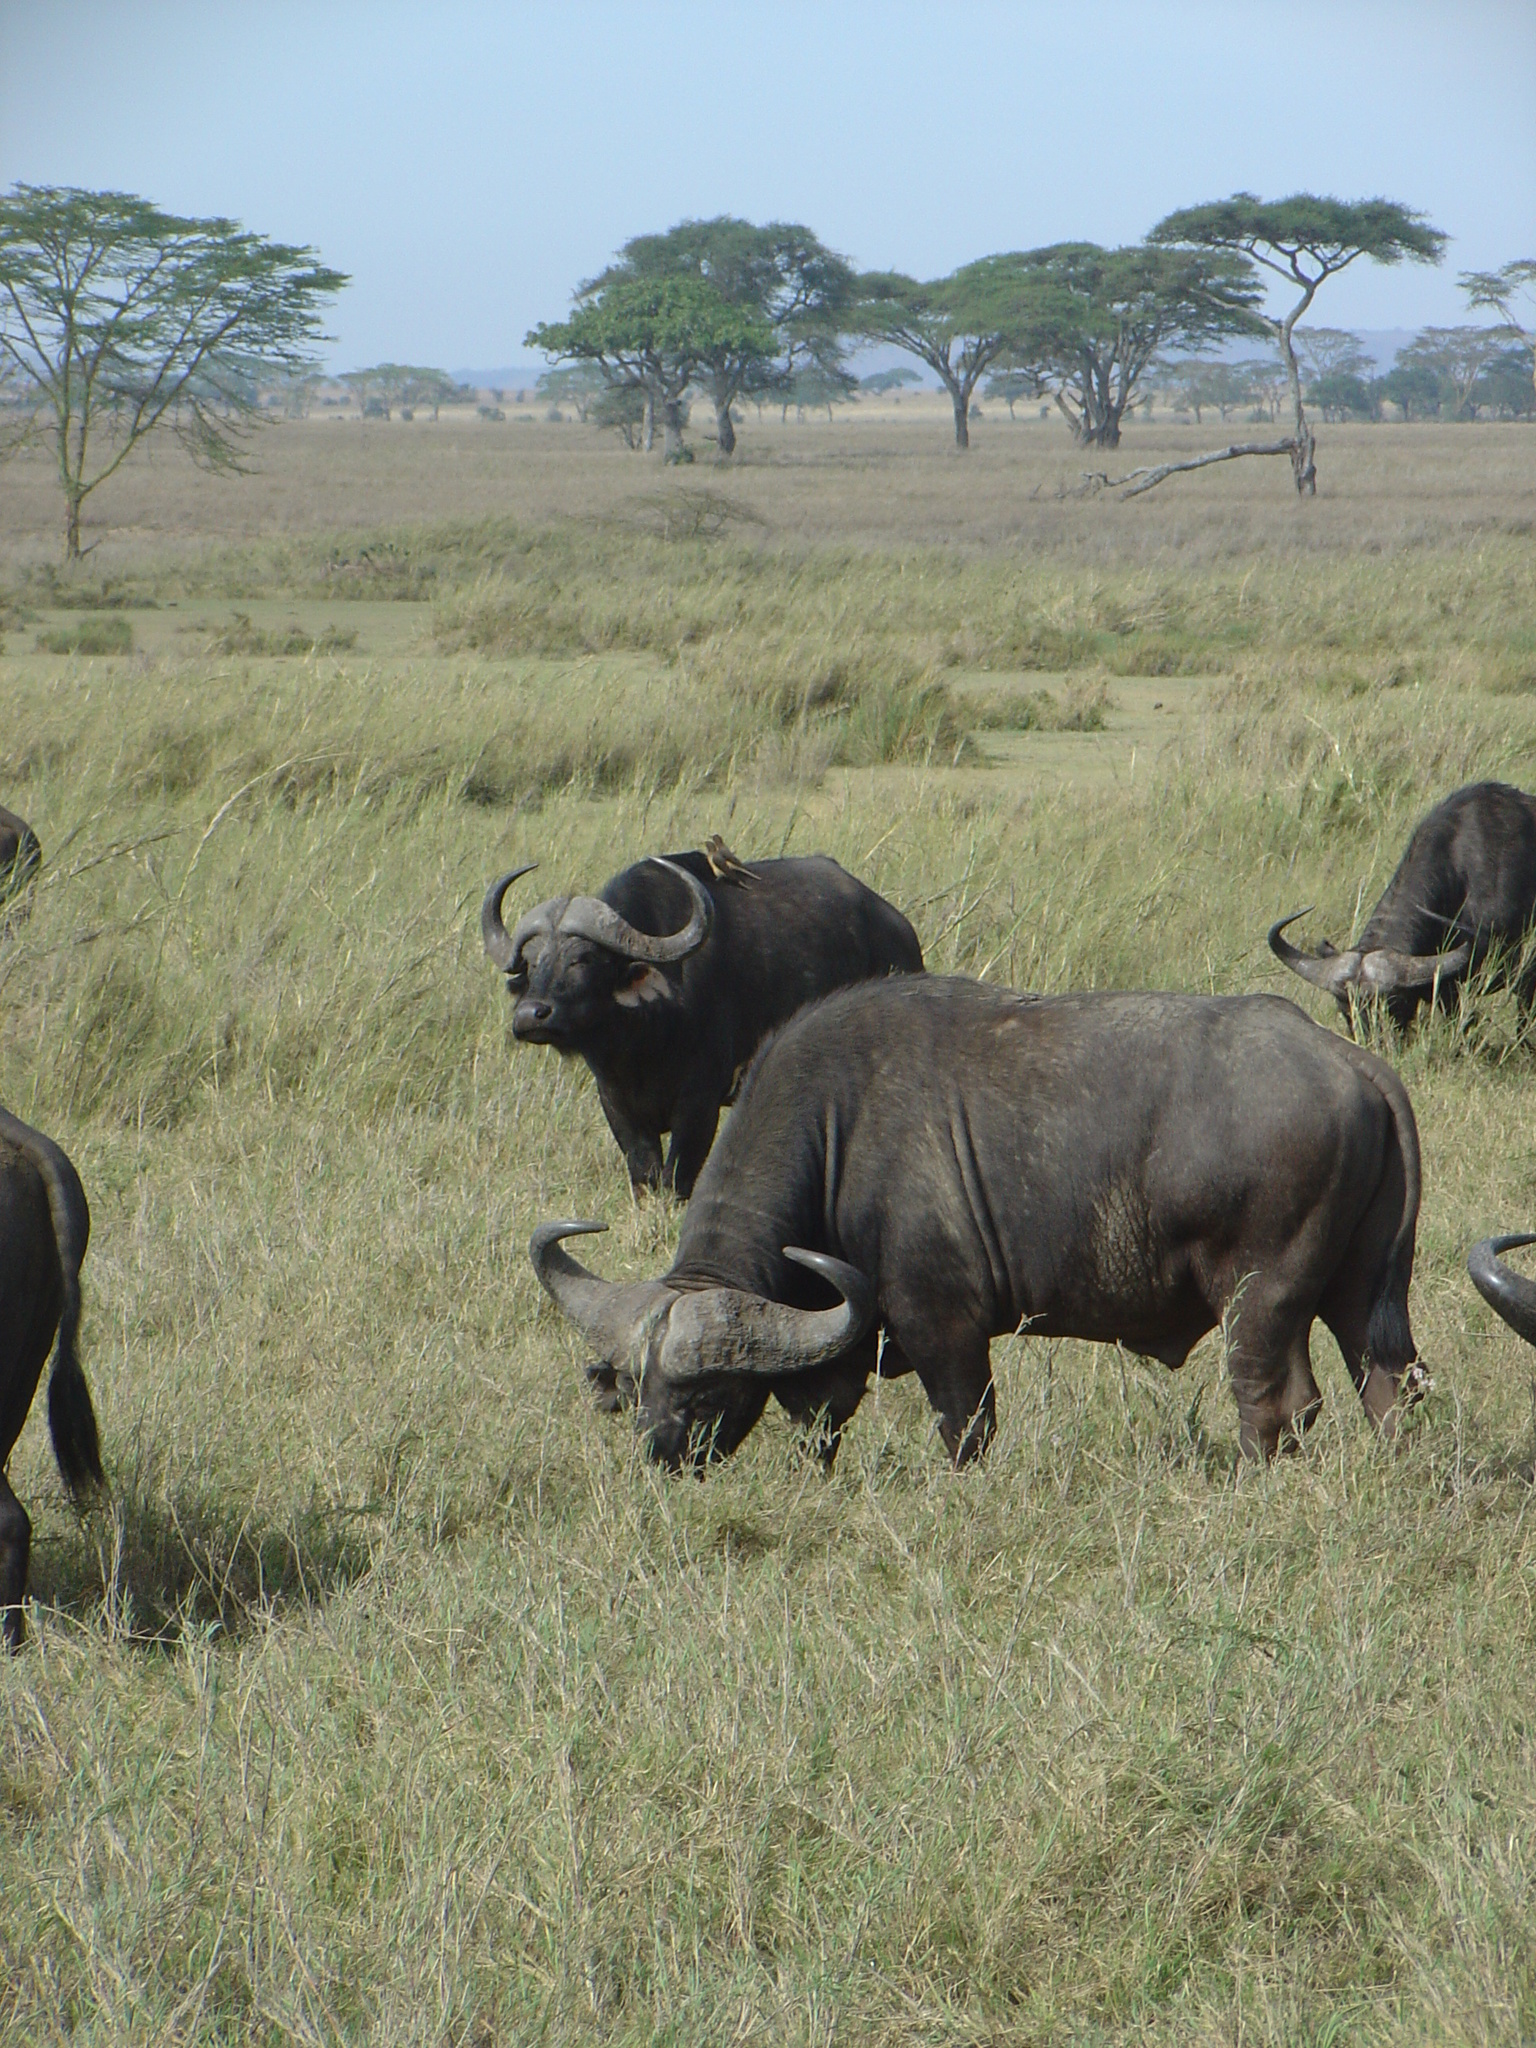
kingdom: Animalia
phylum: Chordata
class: Mammalia
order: Artiodactyla
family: Bovidae
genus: Syncerus
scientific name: Syncerus caffer
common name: African buffalo
